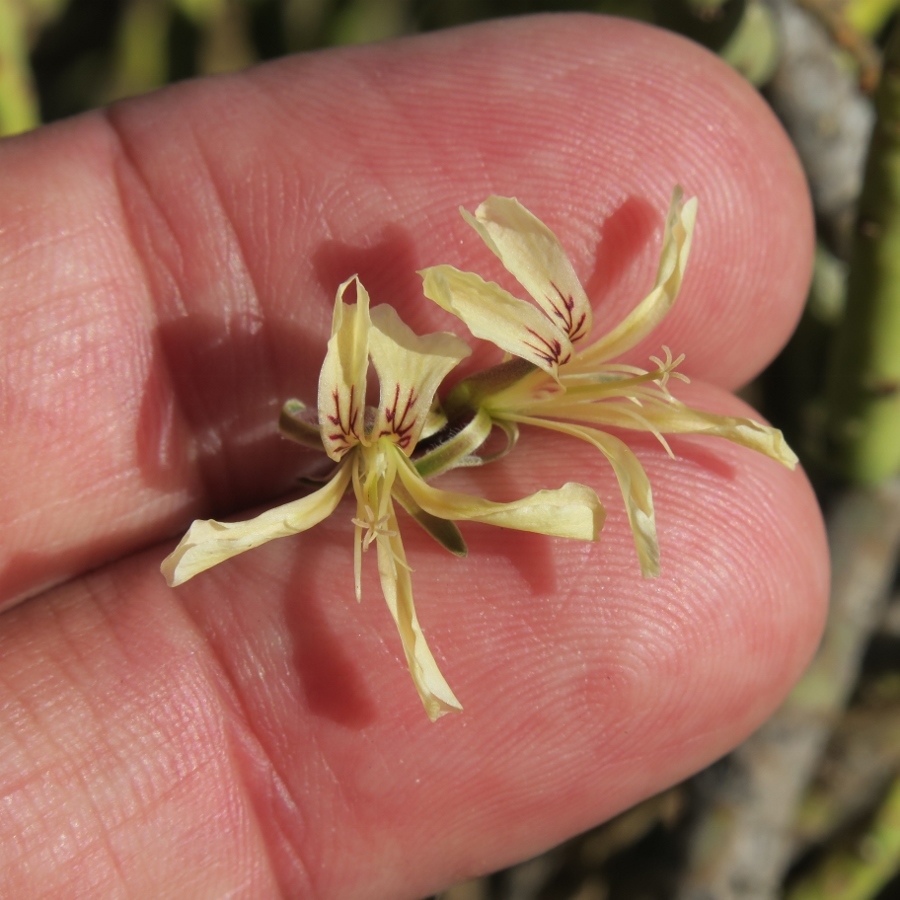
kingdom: Plantae
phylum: Tracheophyta
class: Magnoliopsida
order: Geraniales
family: Geraniaceae
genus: Pelargonium
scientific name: Pelargonium karooicum
